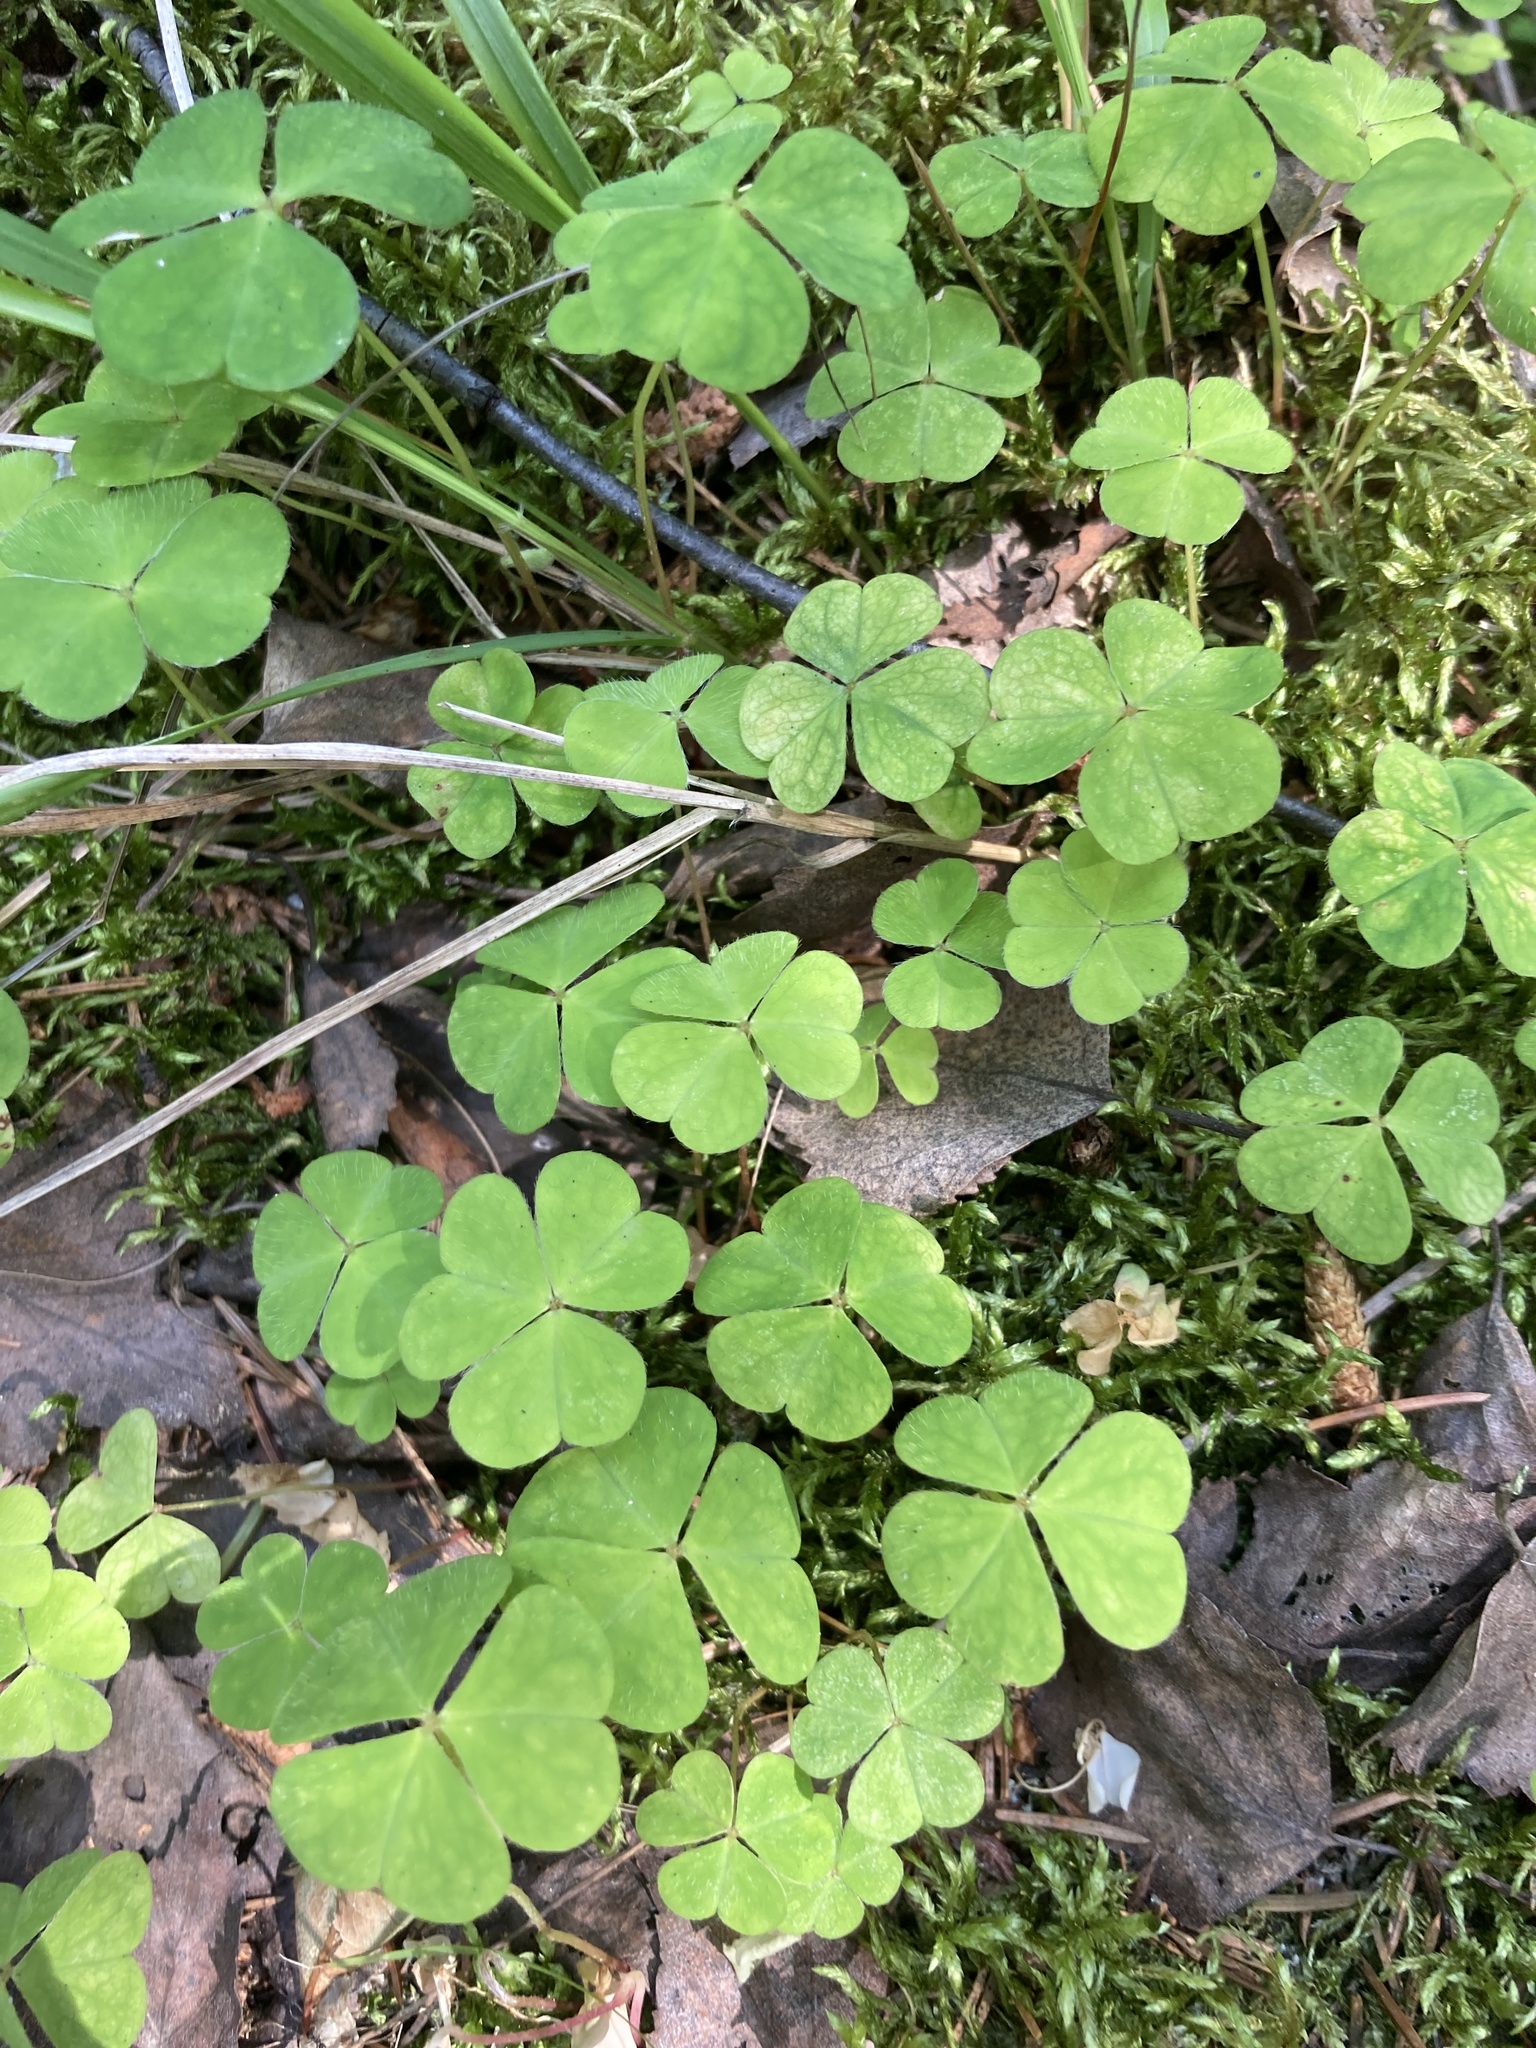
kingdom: Plantae
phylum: Tracheophyta
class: Magnoliopsida
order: Oxalidales
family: Oxalidaceae
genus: Oxalis
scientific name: Oxalis acetosella
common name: Wood-sorrel
